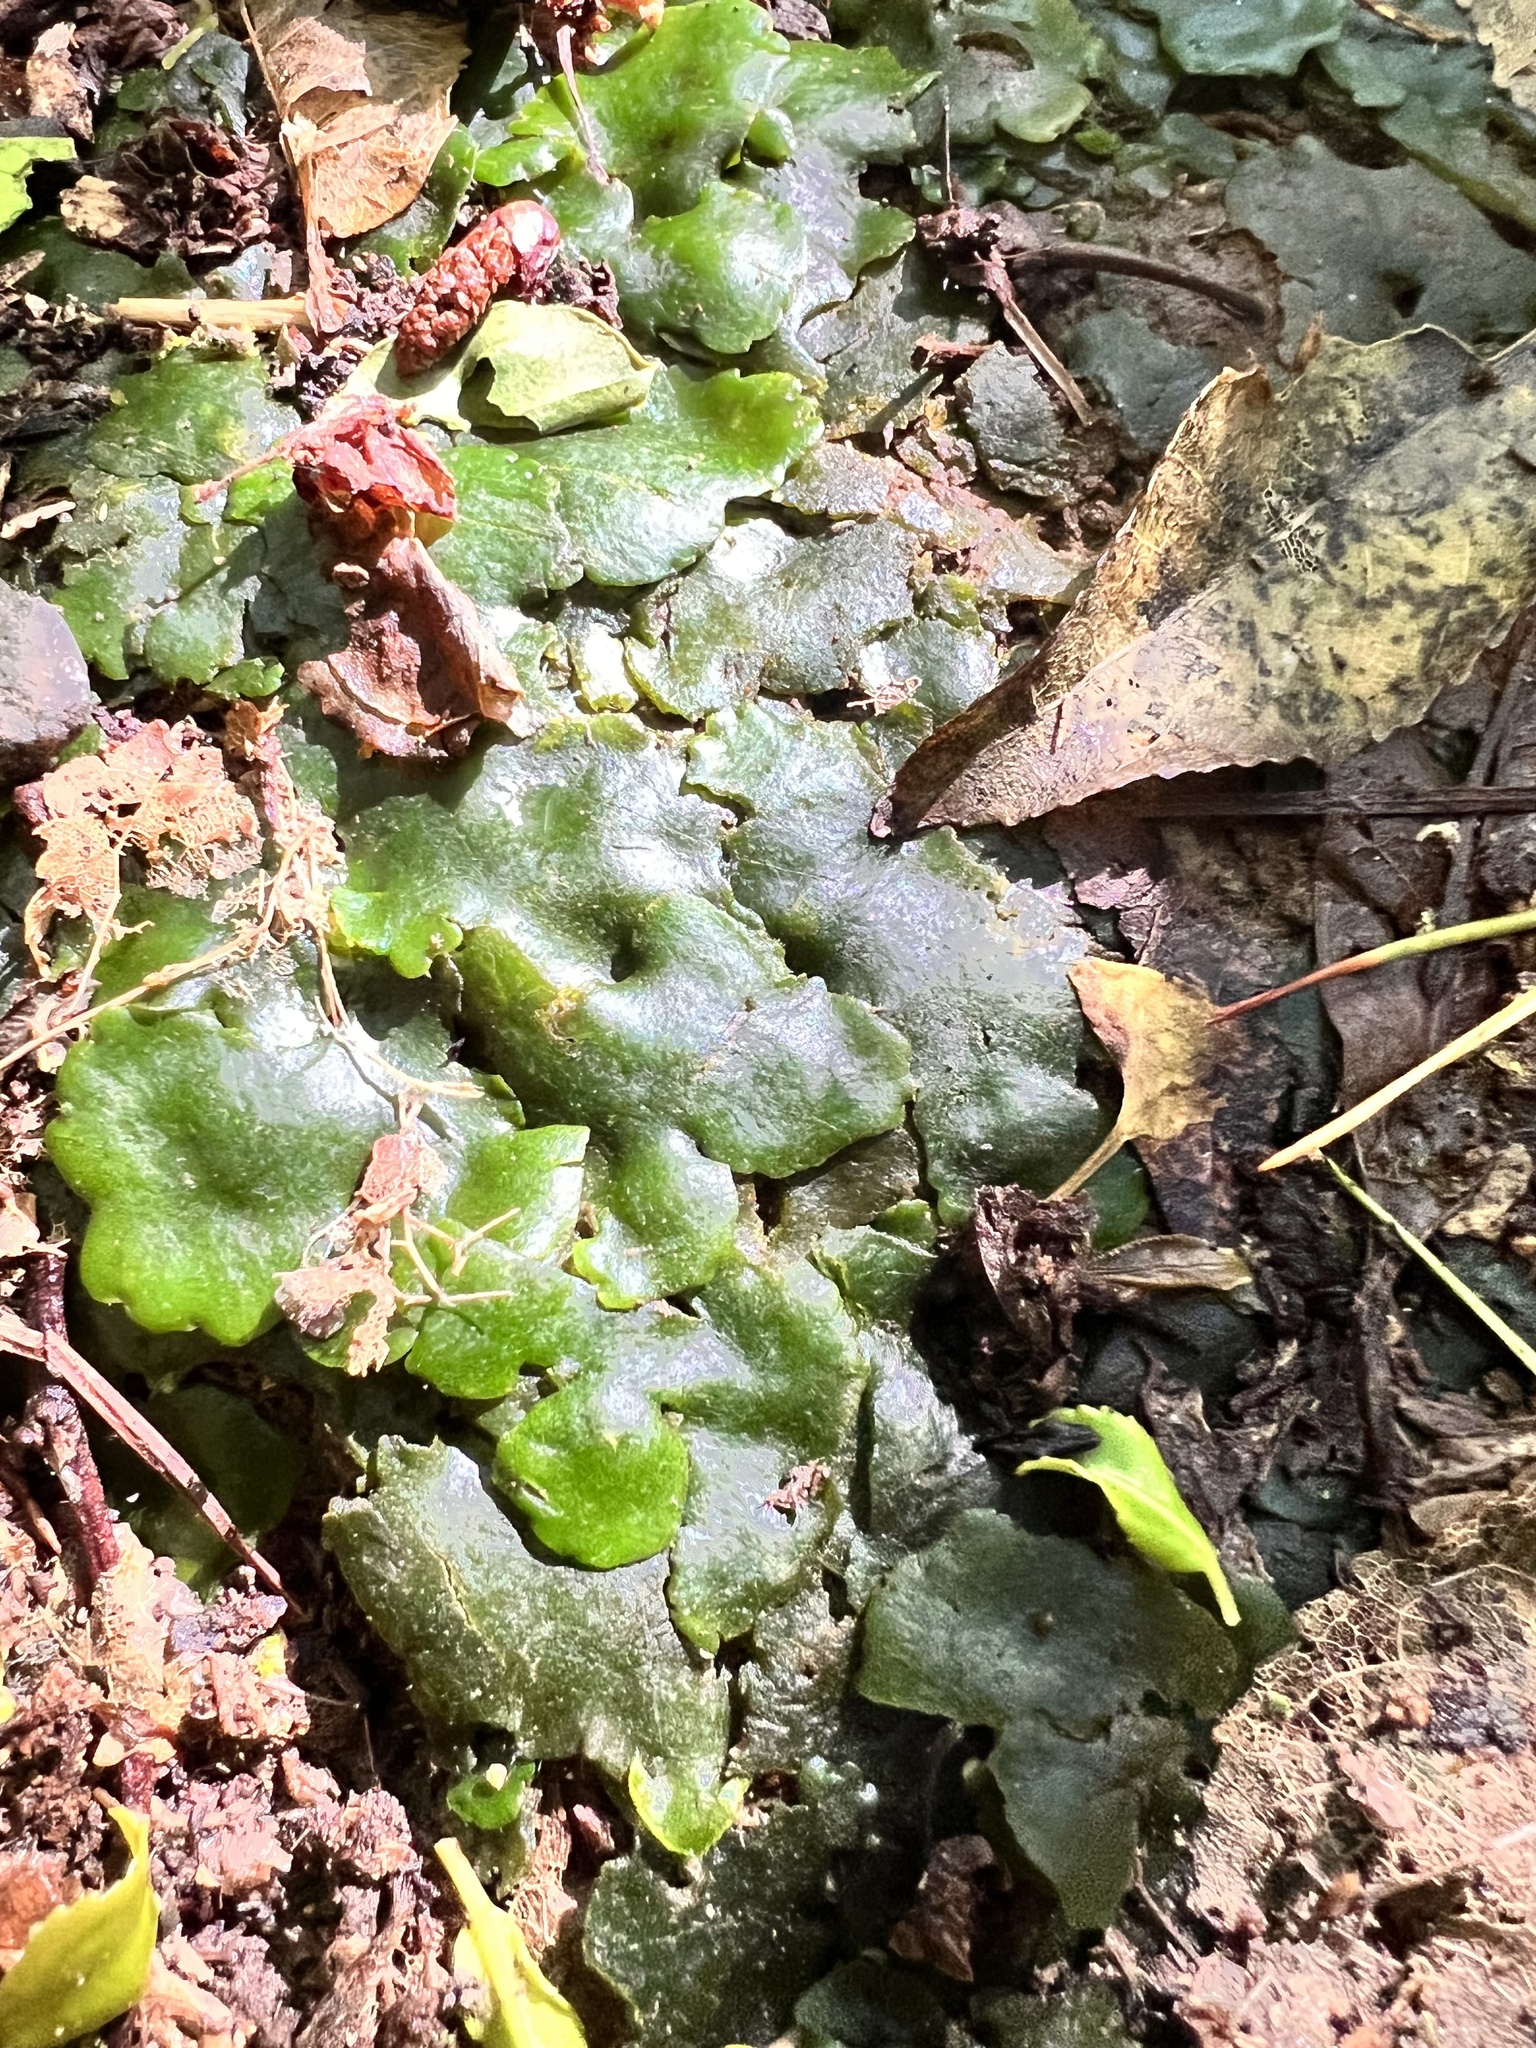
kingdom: Plantae
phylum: Marchantiophyta
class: Marchantiopsida
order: Marchantiales
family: Monocleaceae
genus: Monoclea
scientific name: Monoclea forsteri
